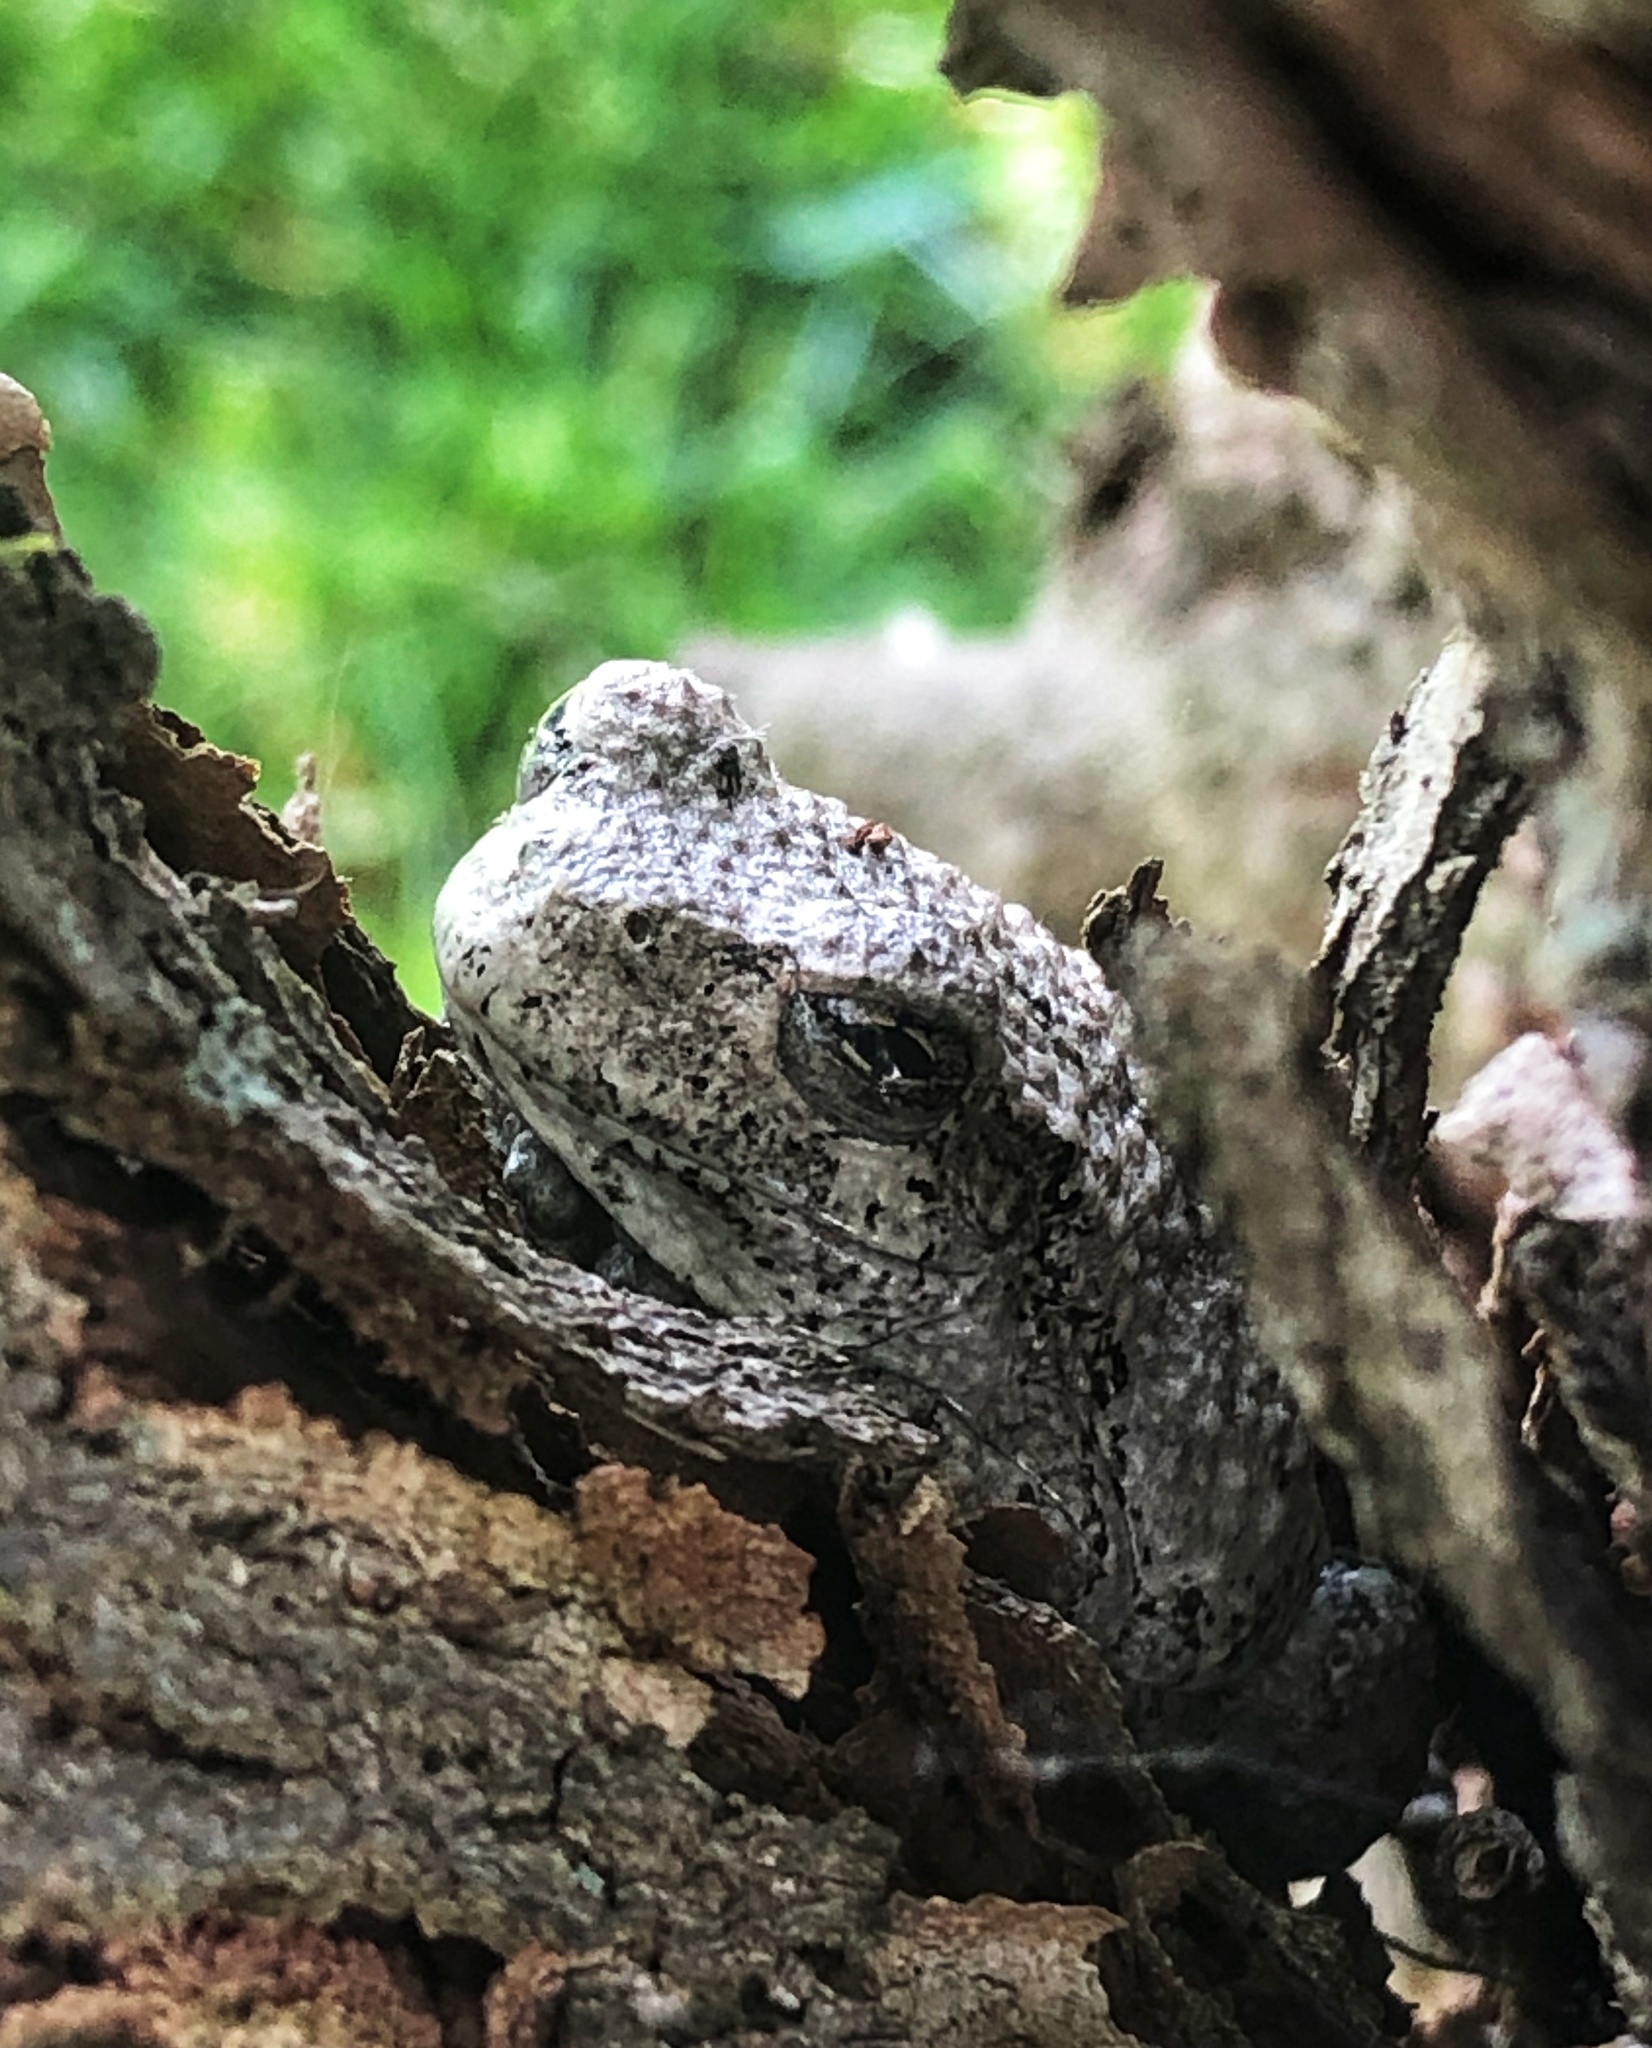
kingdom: Animalia
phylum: Chordata
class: Amphibia
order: Anura
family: Hylidae
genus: Dryophytes
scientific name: Dryophytes versicolor
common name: Gray treefrog
